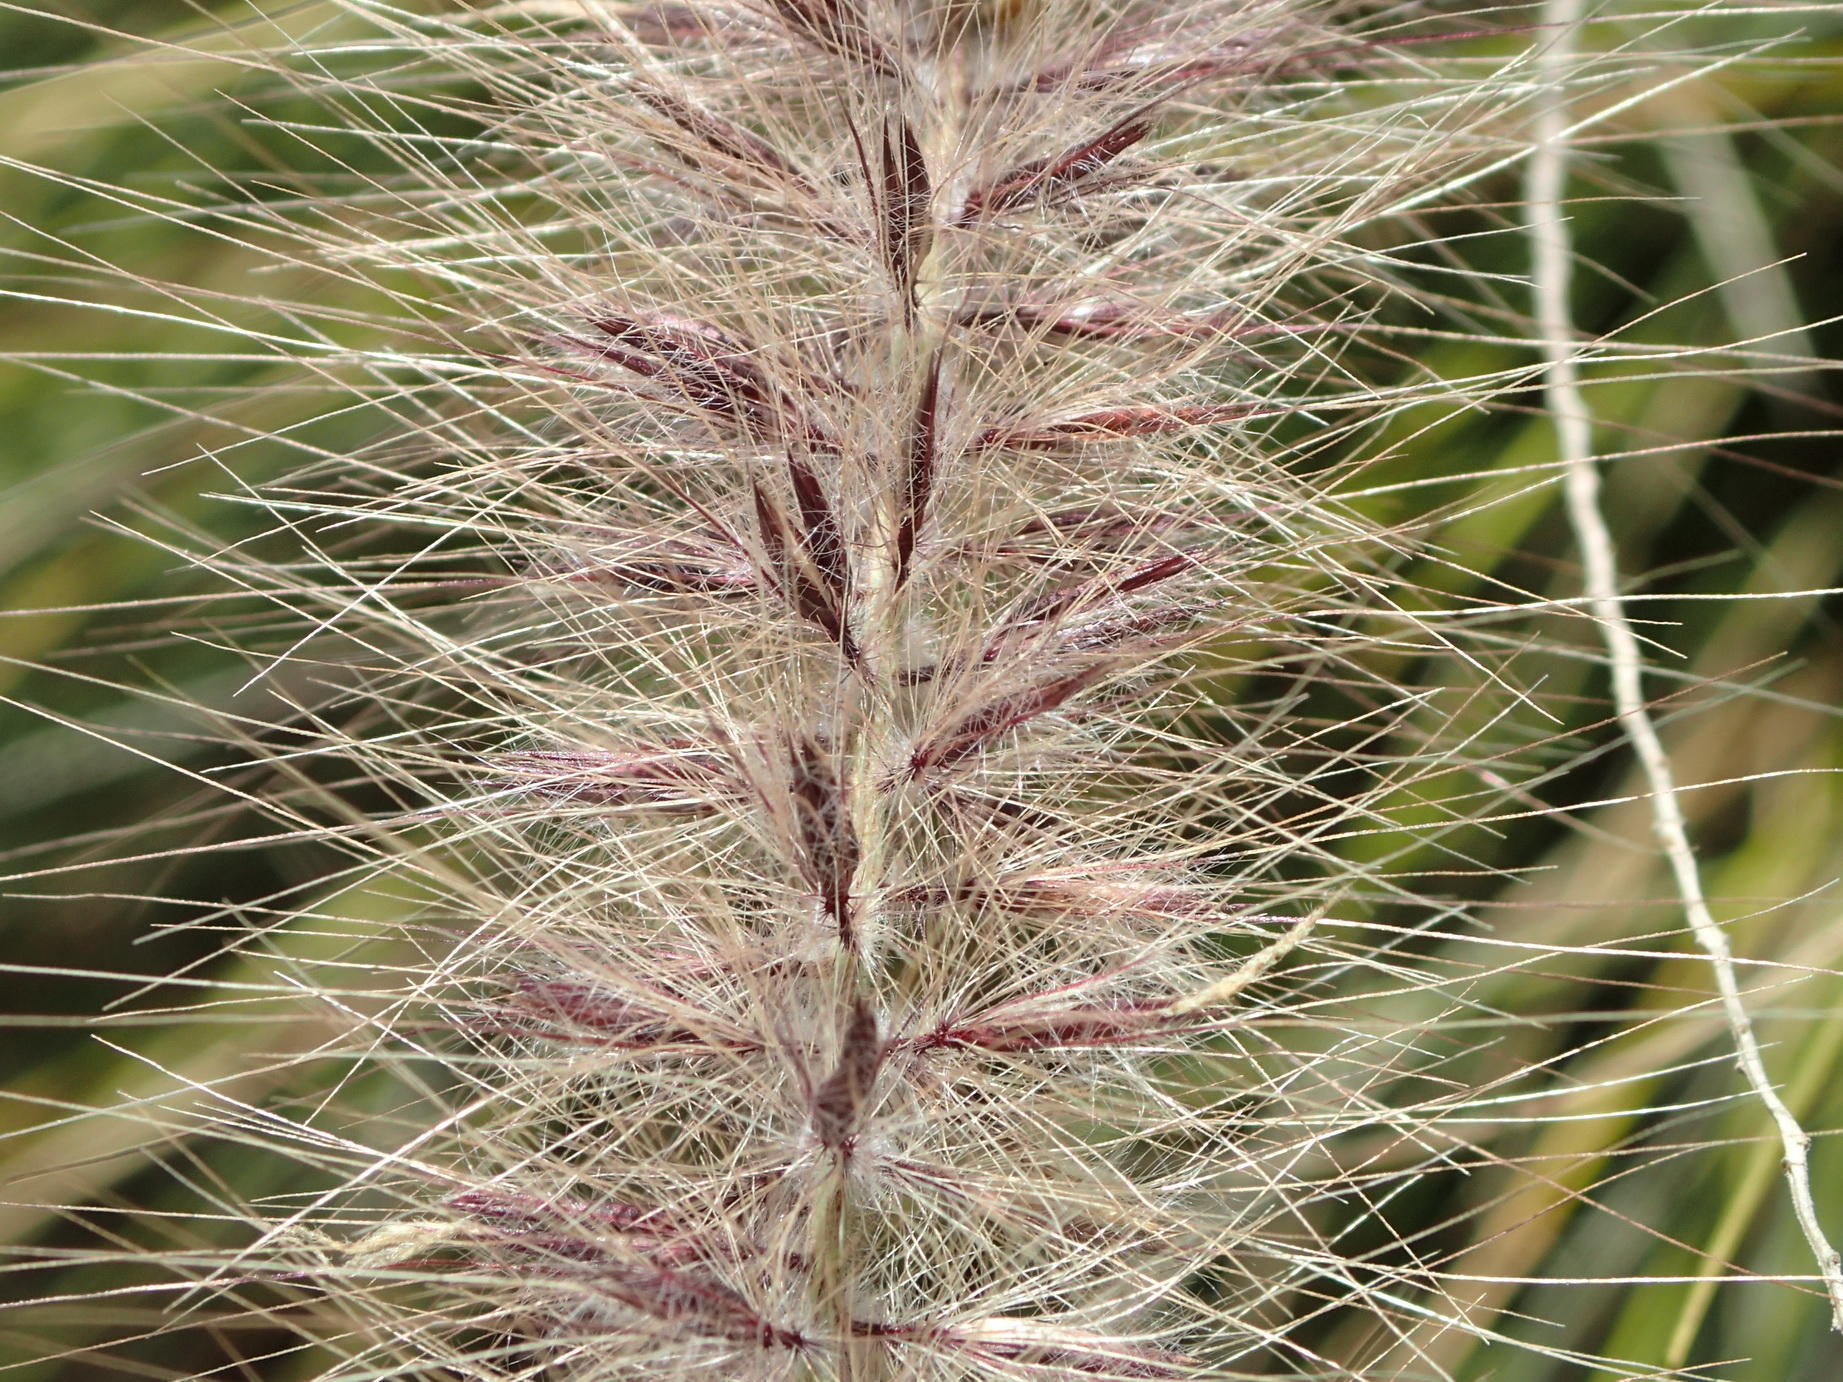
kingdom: Plantae
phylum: Tracheophyta
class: Liliopsida
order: Poales
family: Poaceae
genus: Cenchrus
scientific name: Cenchrus setaceus
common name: Crimson fountaingrass
